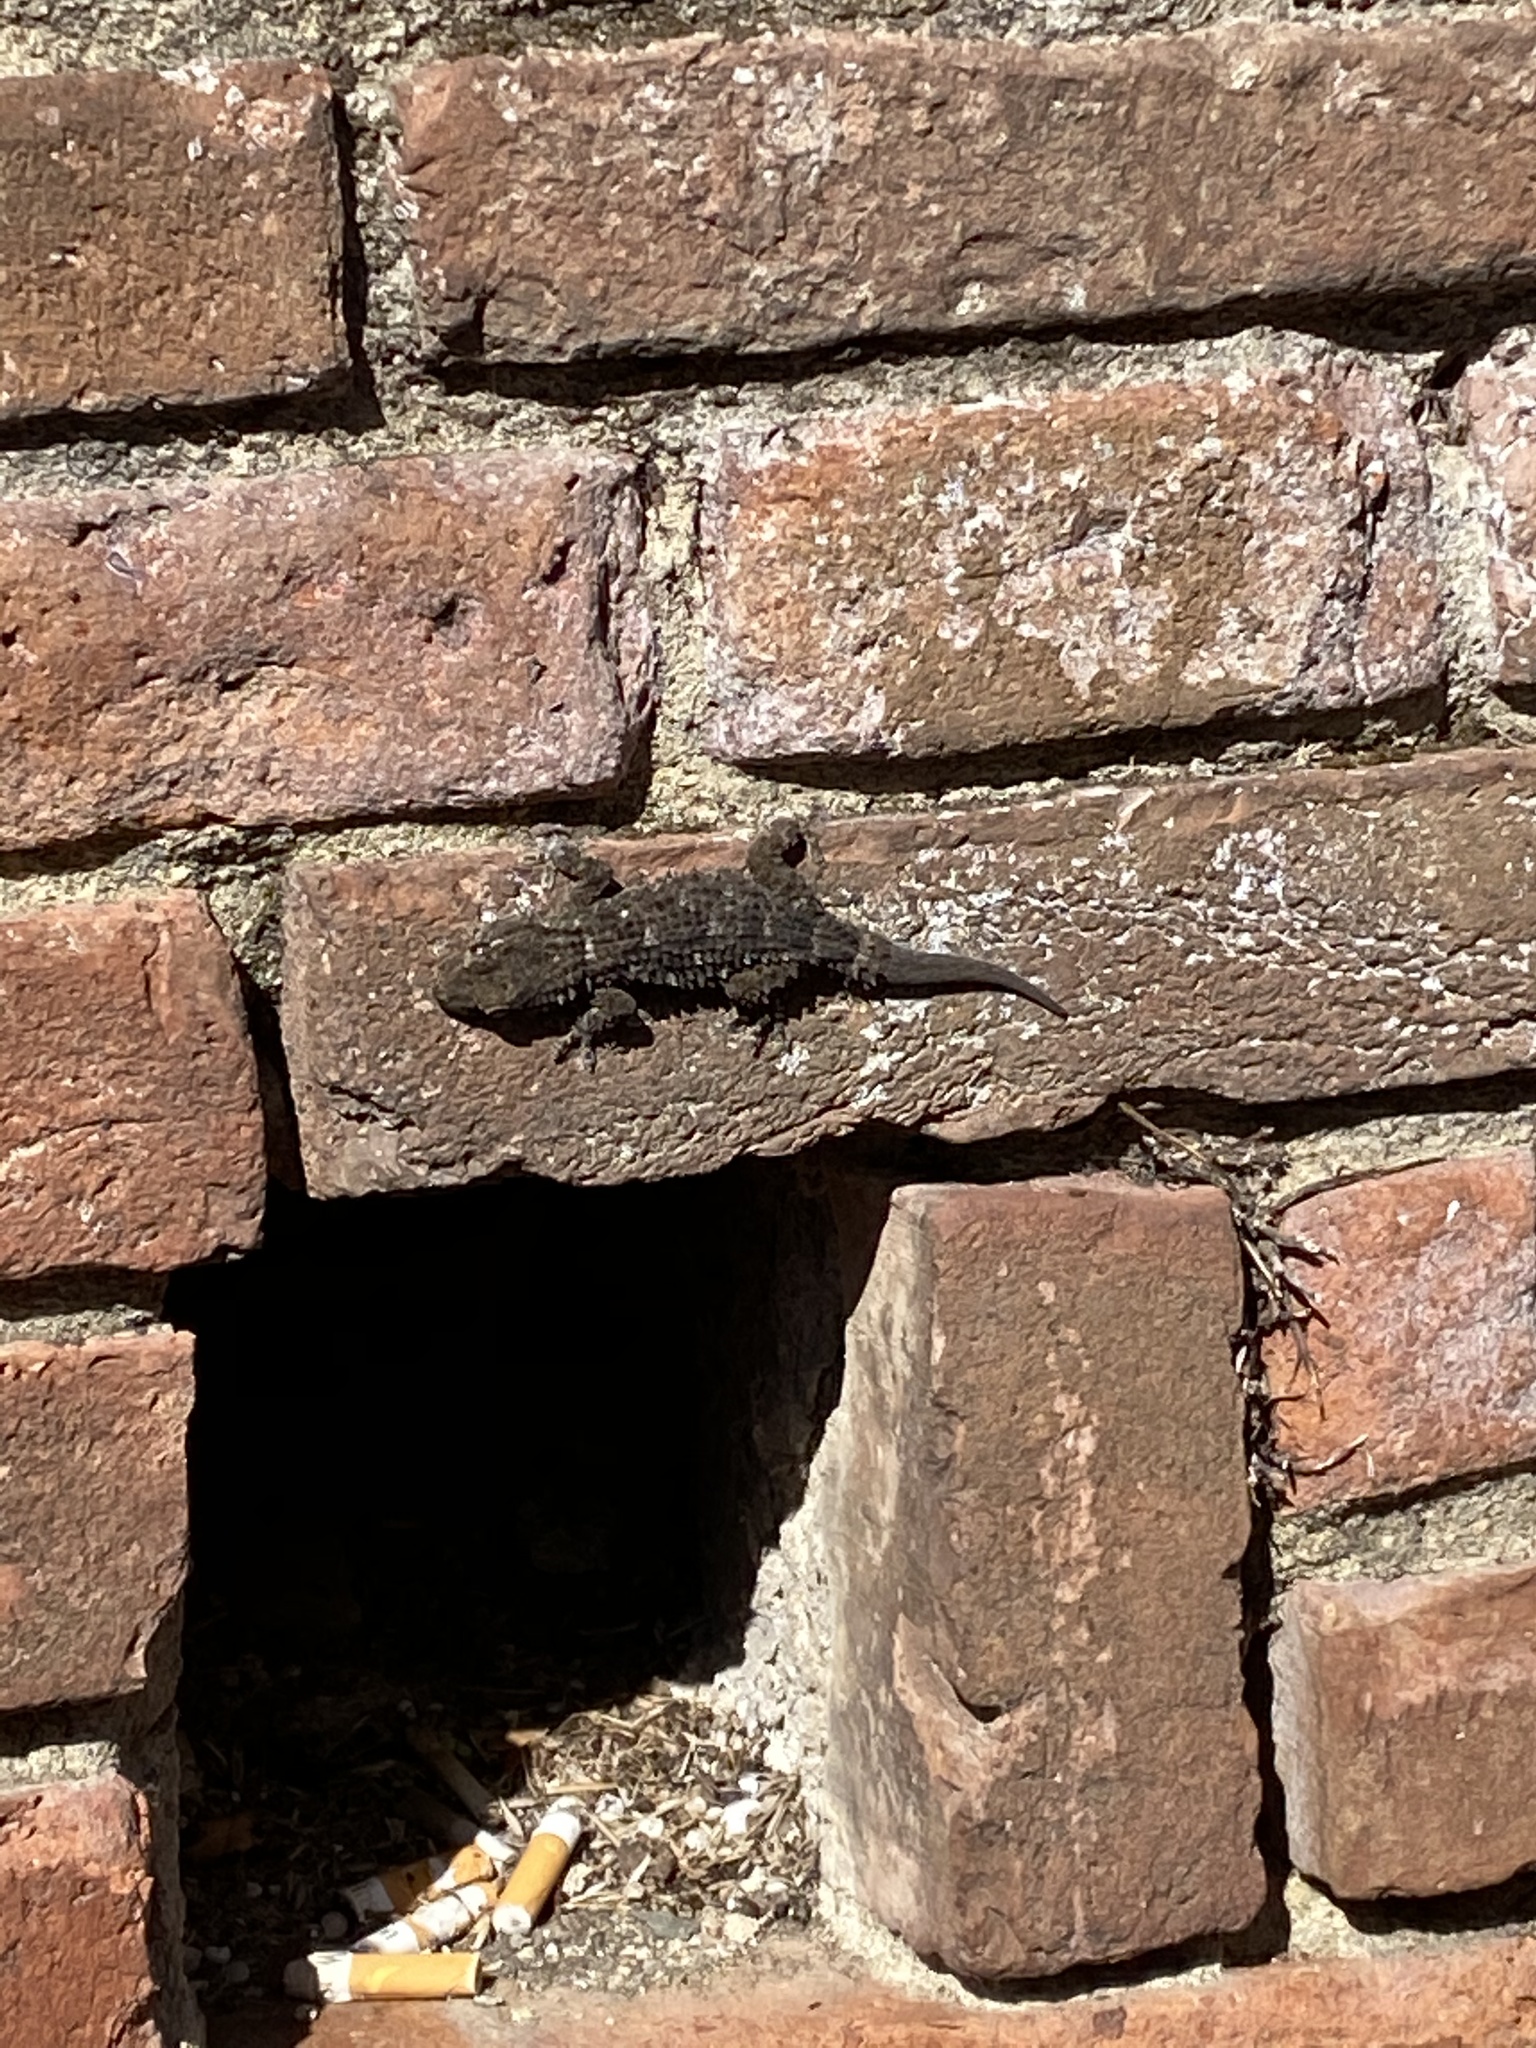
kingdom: Animalia
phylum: Chordata
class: Squamata
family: Phyllodactylidae
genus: Tarentola
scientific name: Tarentola mauritanica
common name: Moorish gecko
